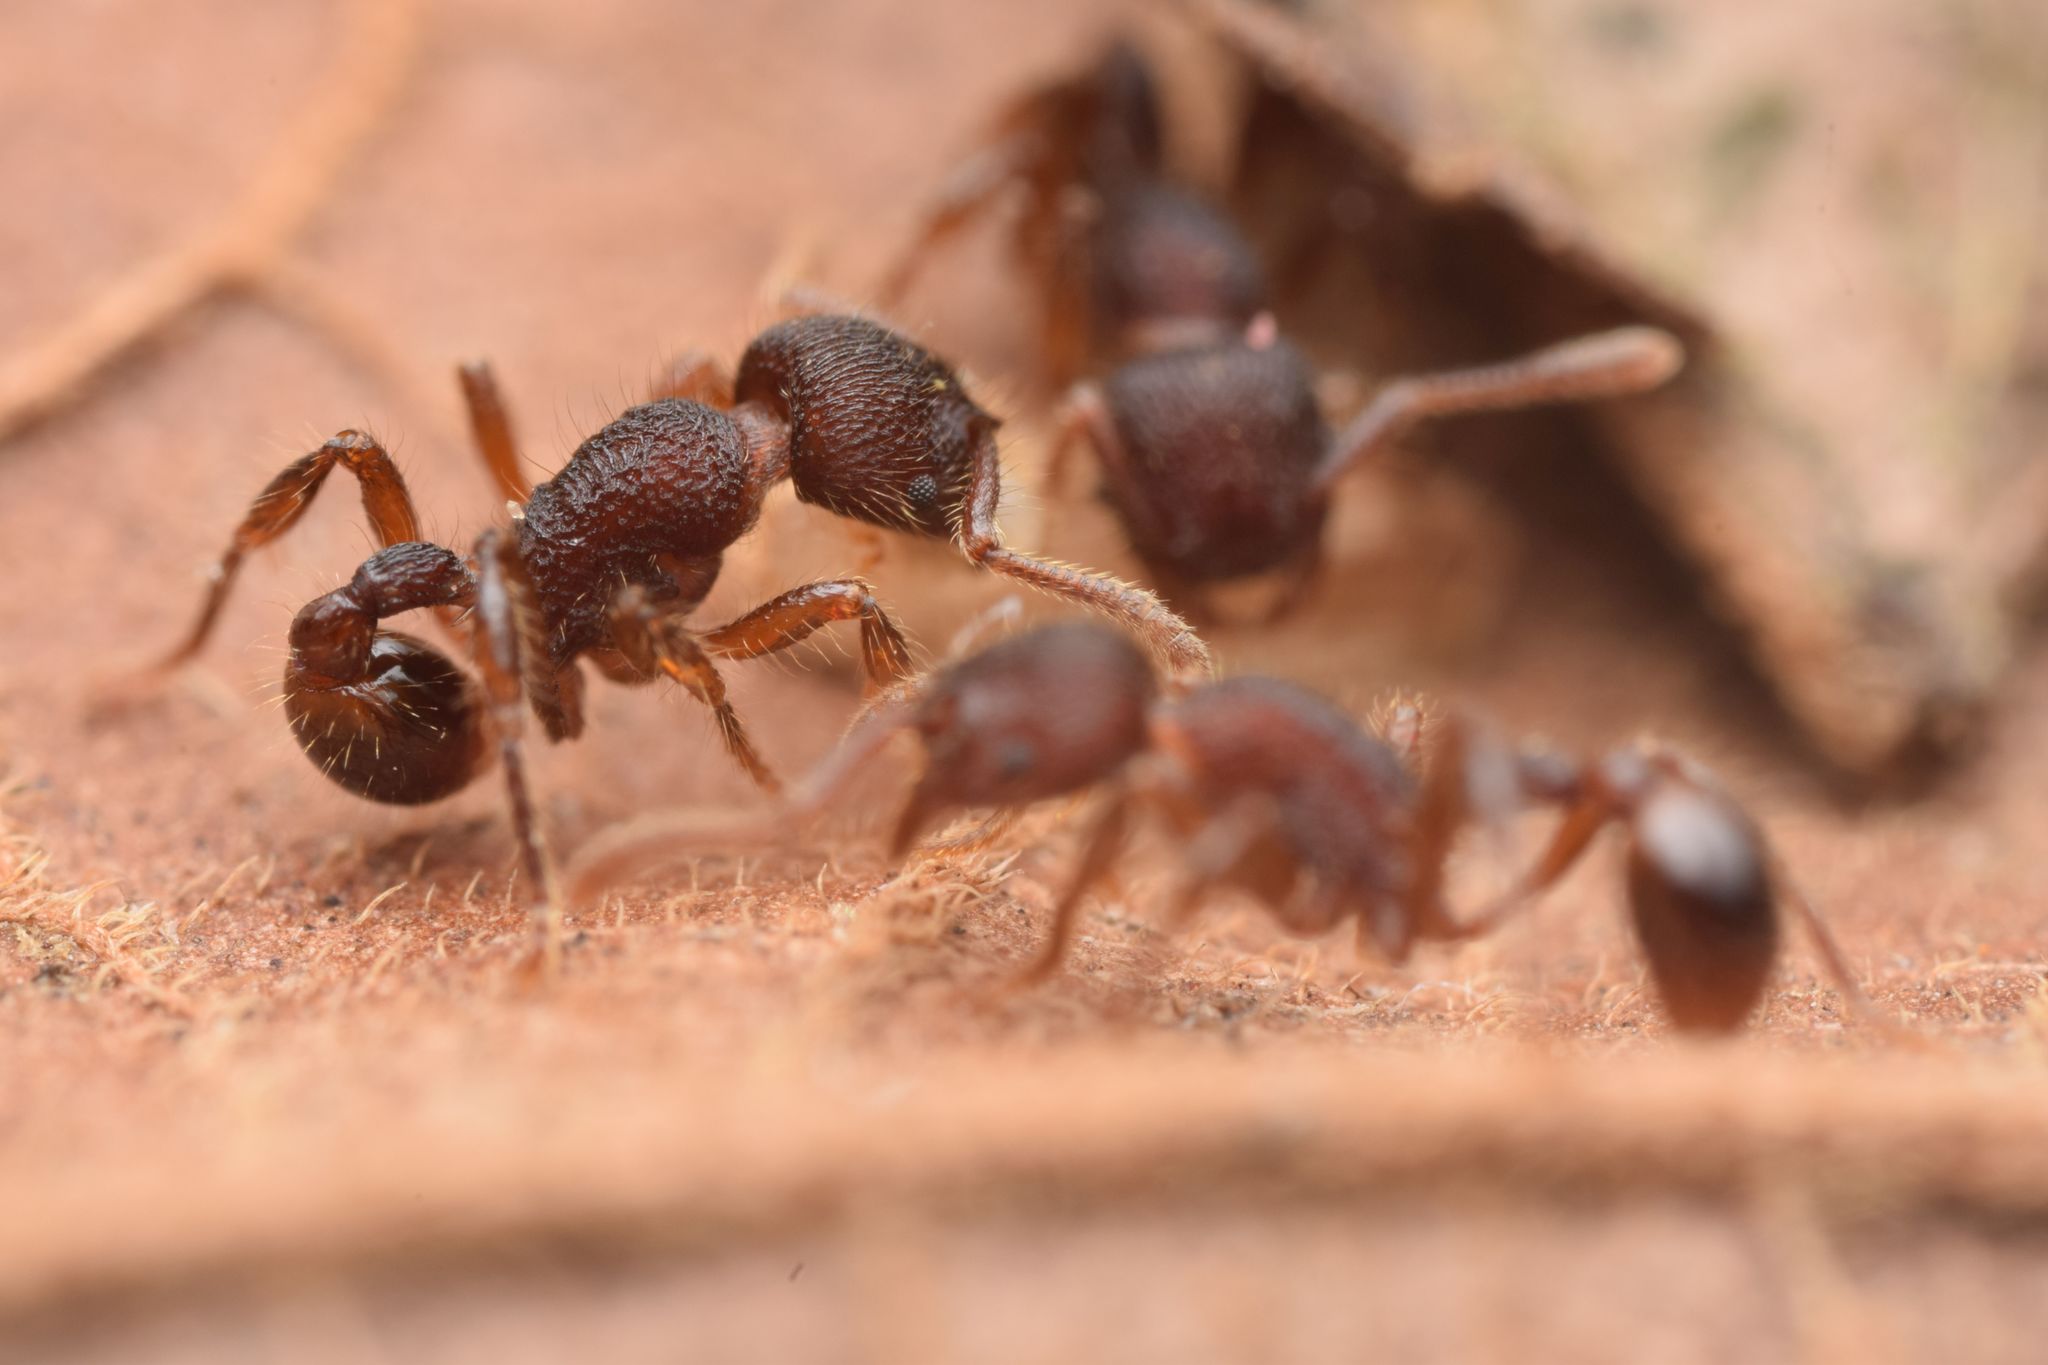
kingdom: Animalia
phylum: Arthropoda
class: Insecta
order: Hymenoptera
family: Formicidae
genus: Hylomyrma
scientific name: Hylomyrma montana
